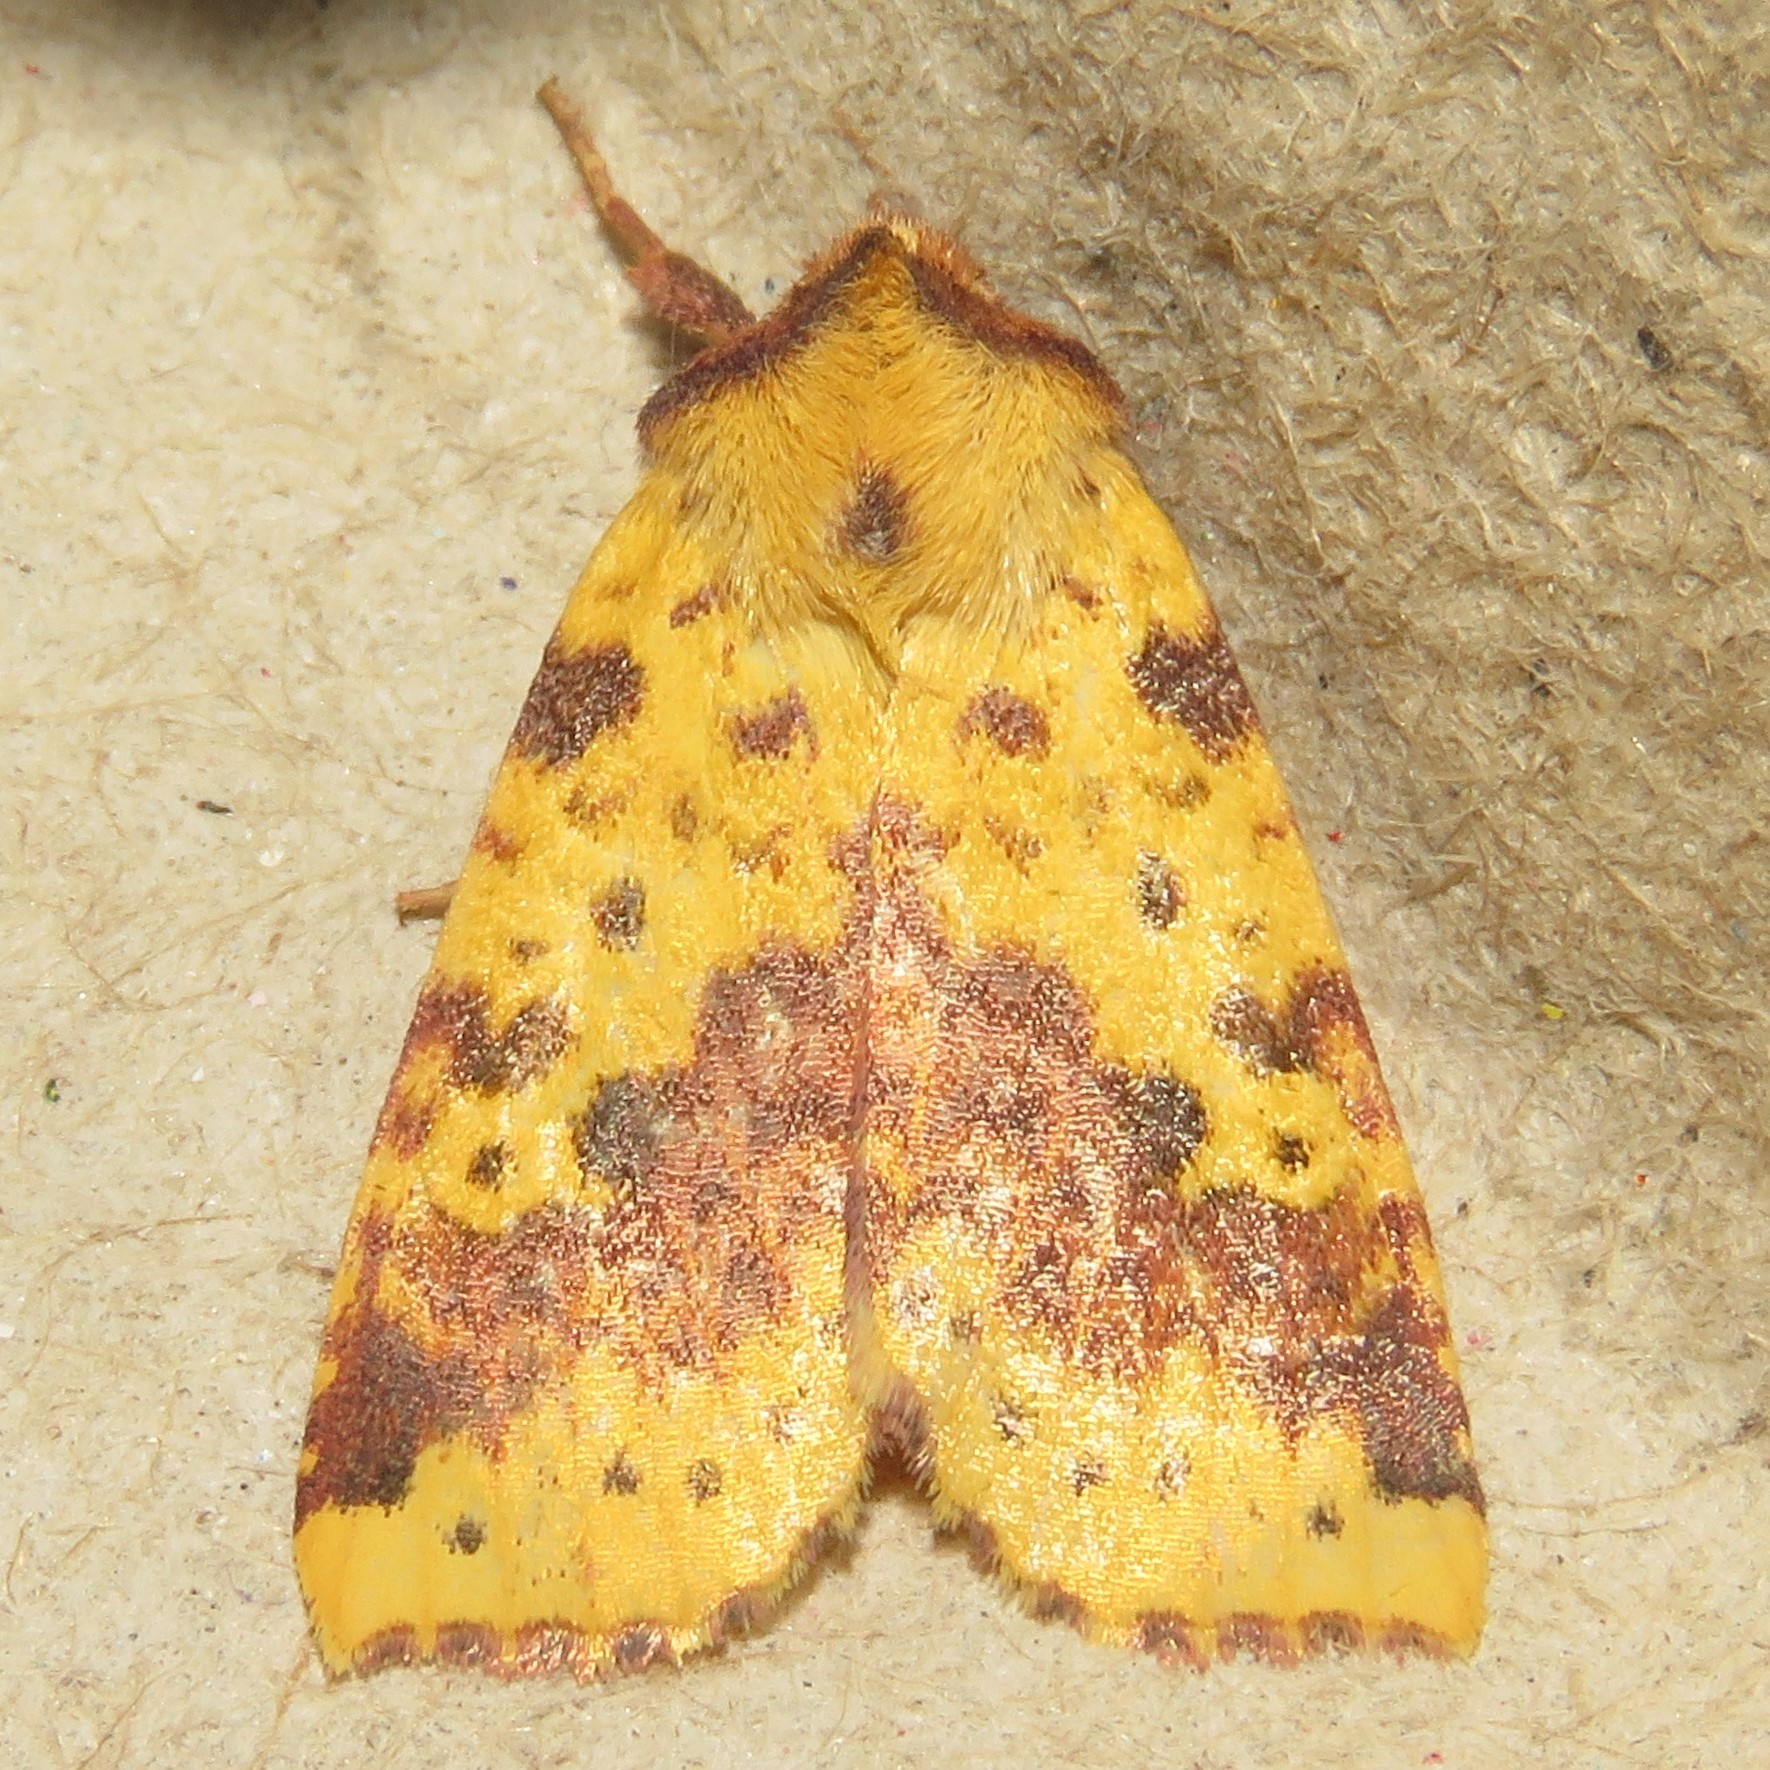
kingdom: Animalia
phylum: Arthropoda
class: Insecta
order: Lepidoptera
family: Noctuidae
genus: Xanthia
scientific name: Xanthia tatago
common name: Pink-banded sallow
